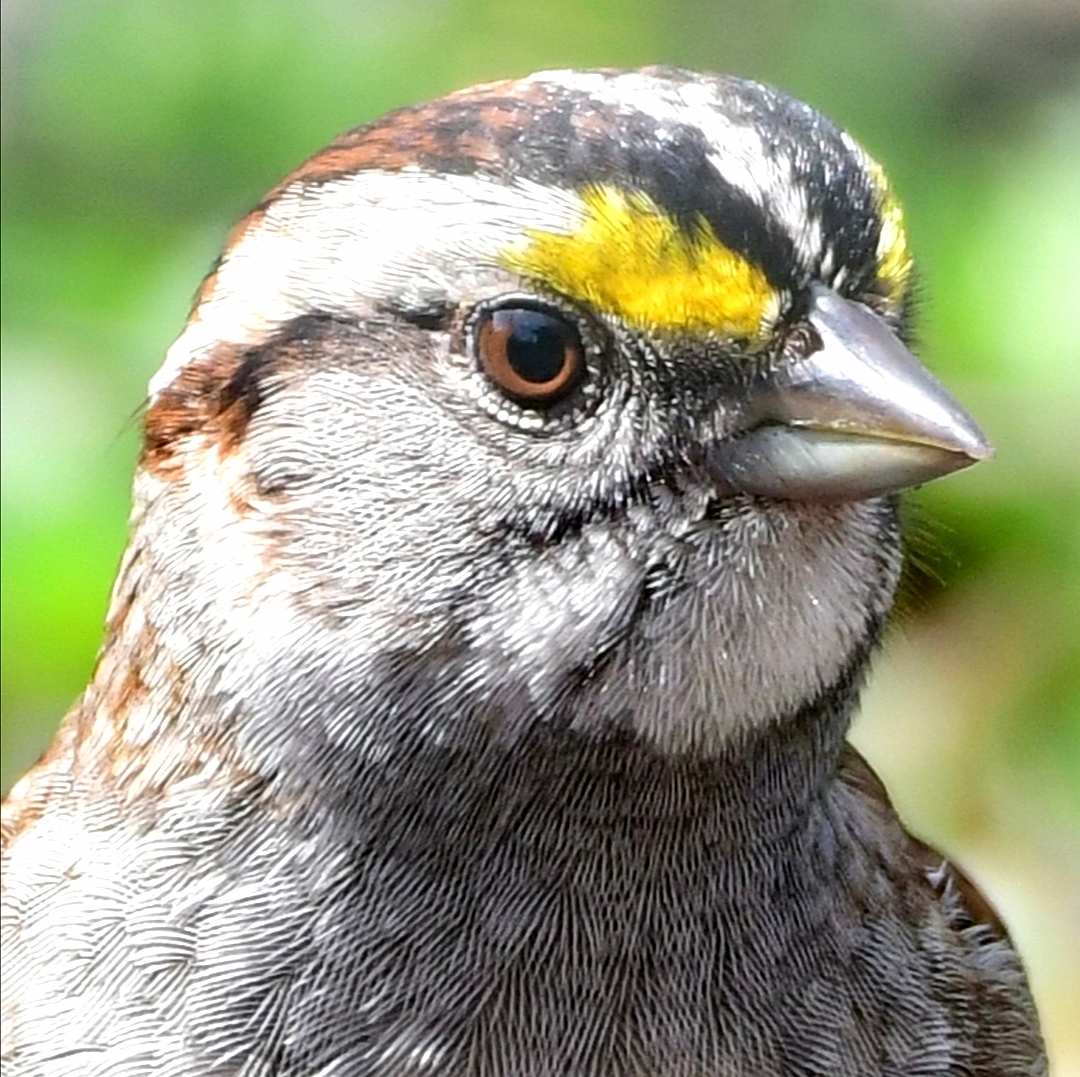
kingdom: Animalia
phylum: Chordata
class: Aves
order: Passeriformes
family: Passerellidae
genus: Zonotrichia
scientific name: Zonotrichia albicollis
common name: White-throated sparrow
